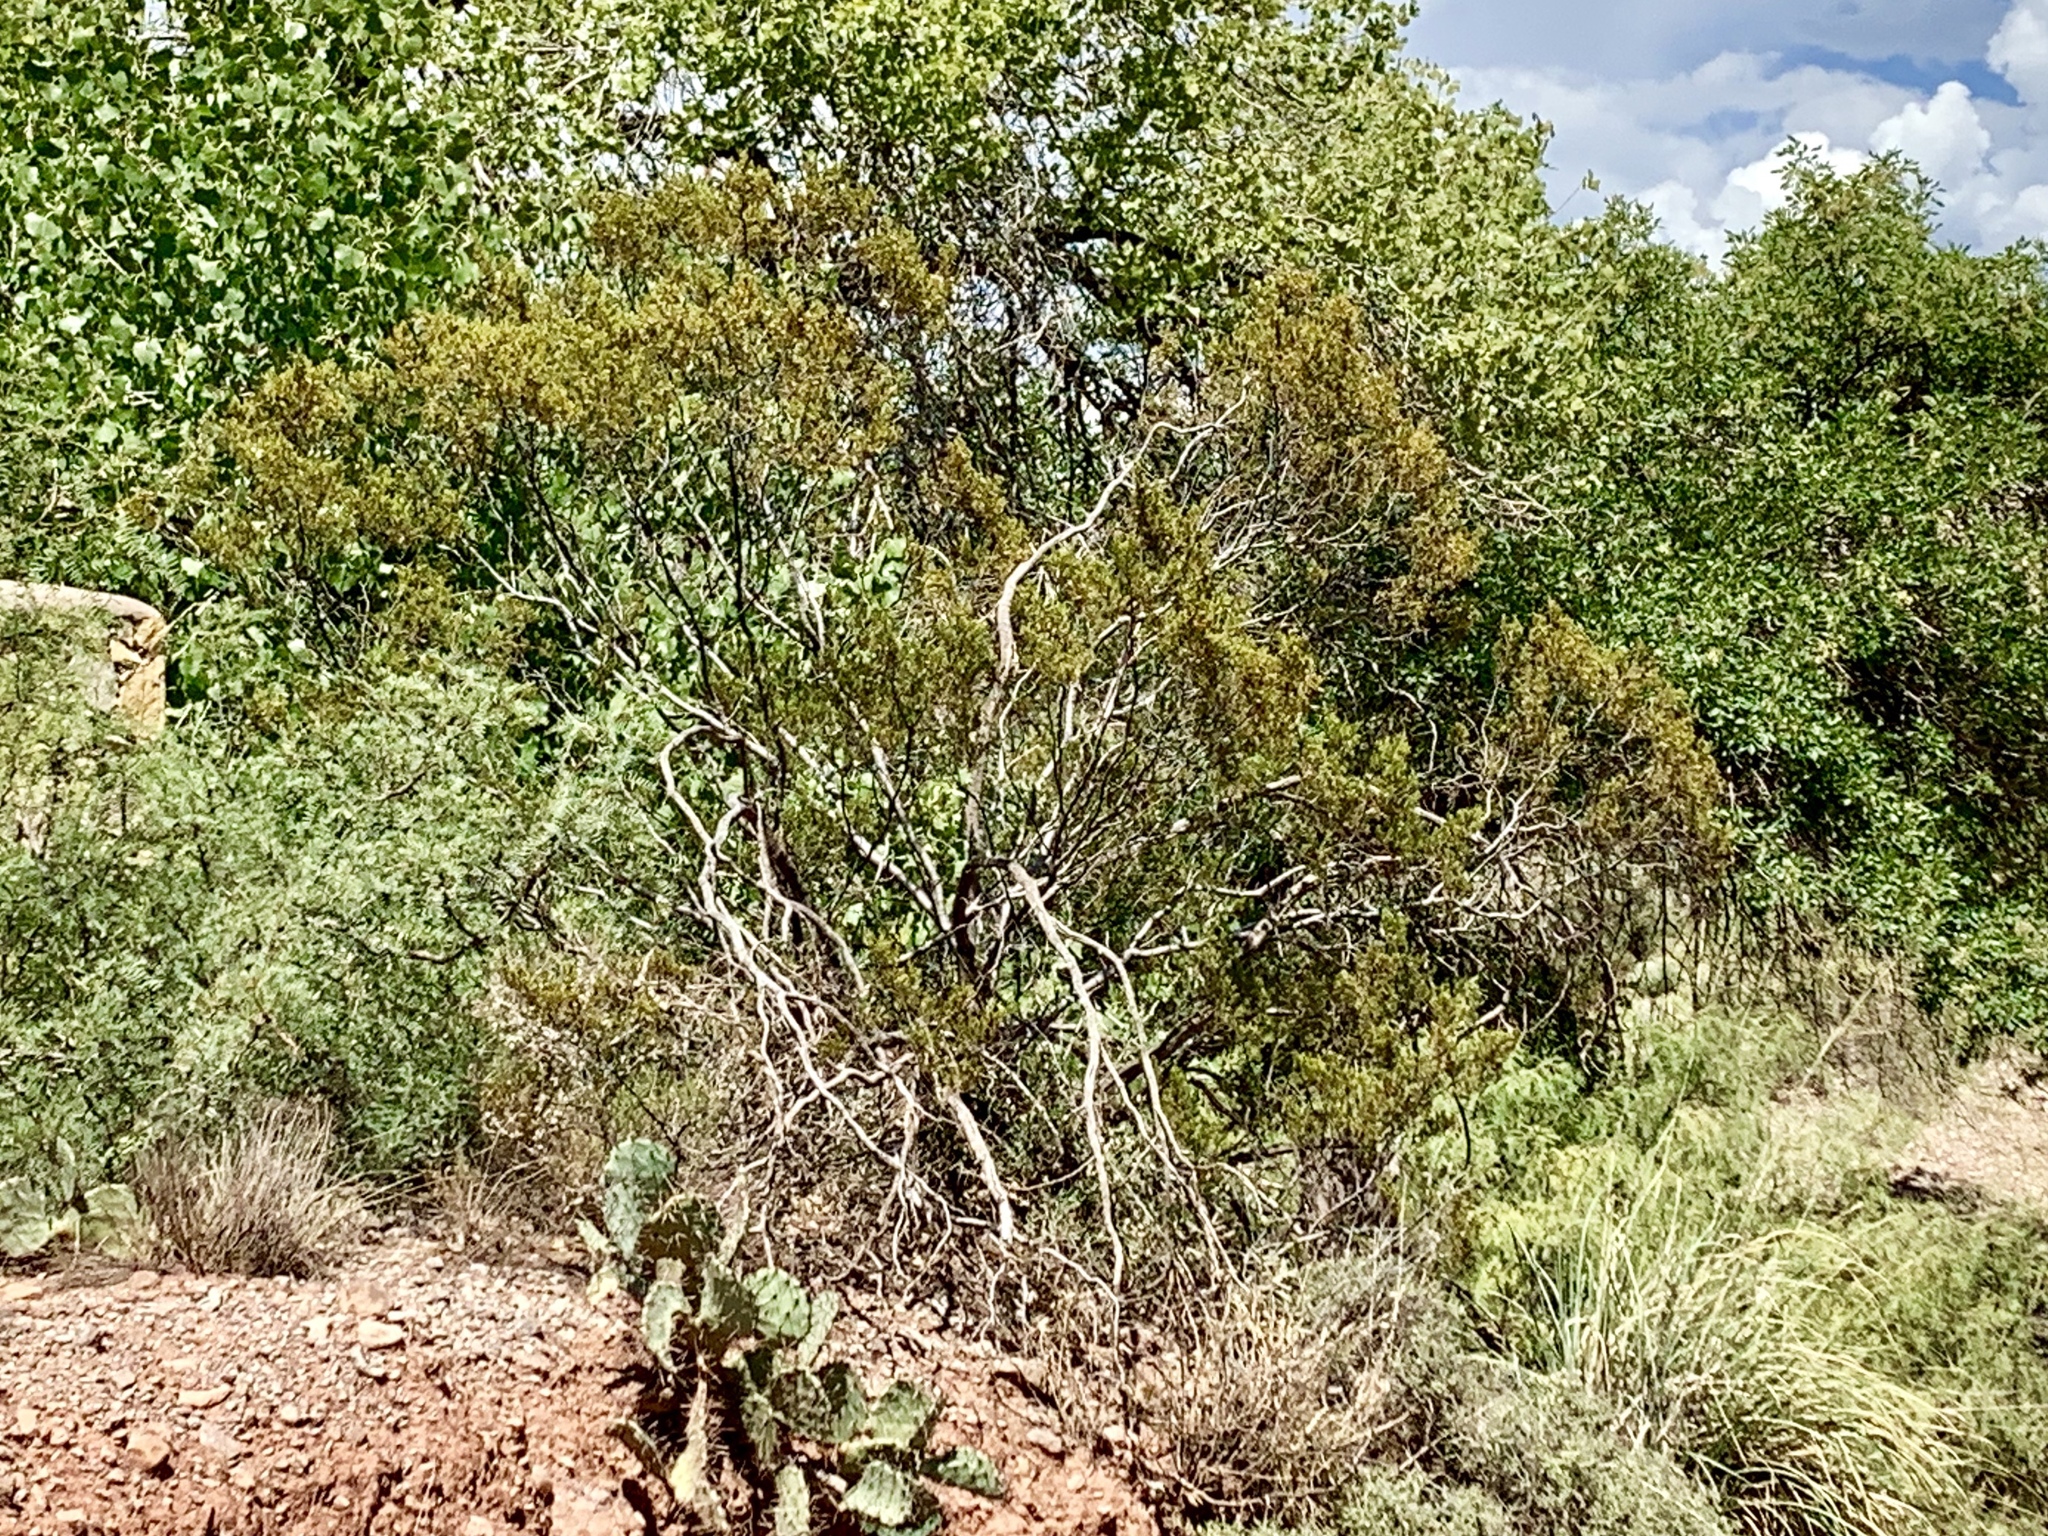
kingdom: Plantae
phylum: Tracheophyta
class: Magnoliopsida
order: Zygophyllales
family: Zygophyllaceae
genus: Larrea
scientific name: Larrea tridentata
